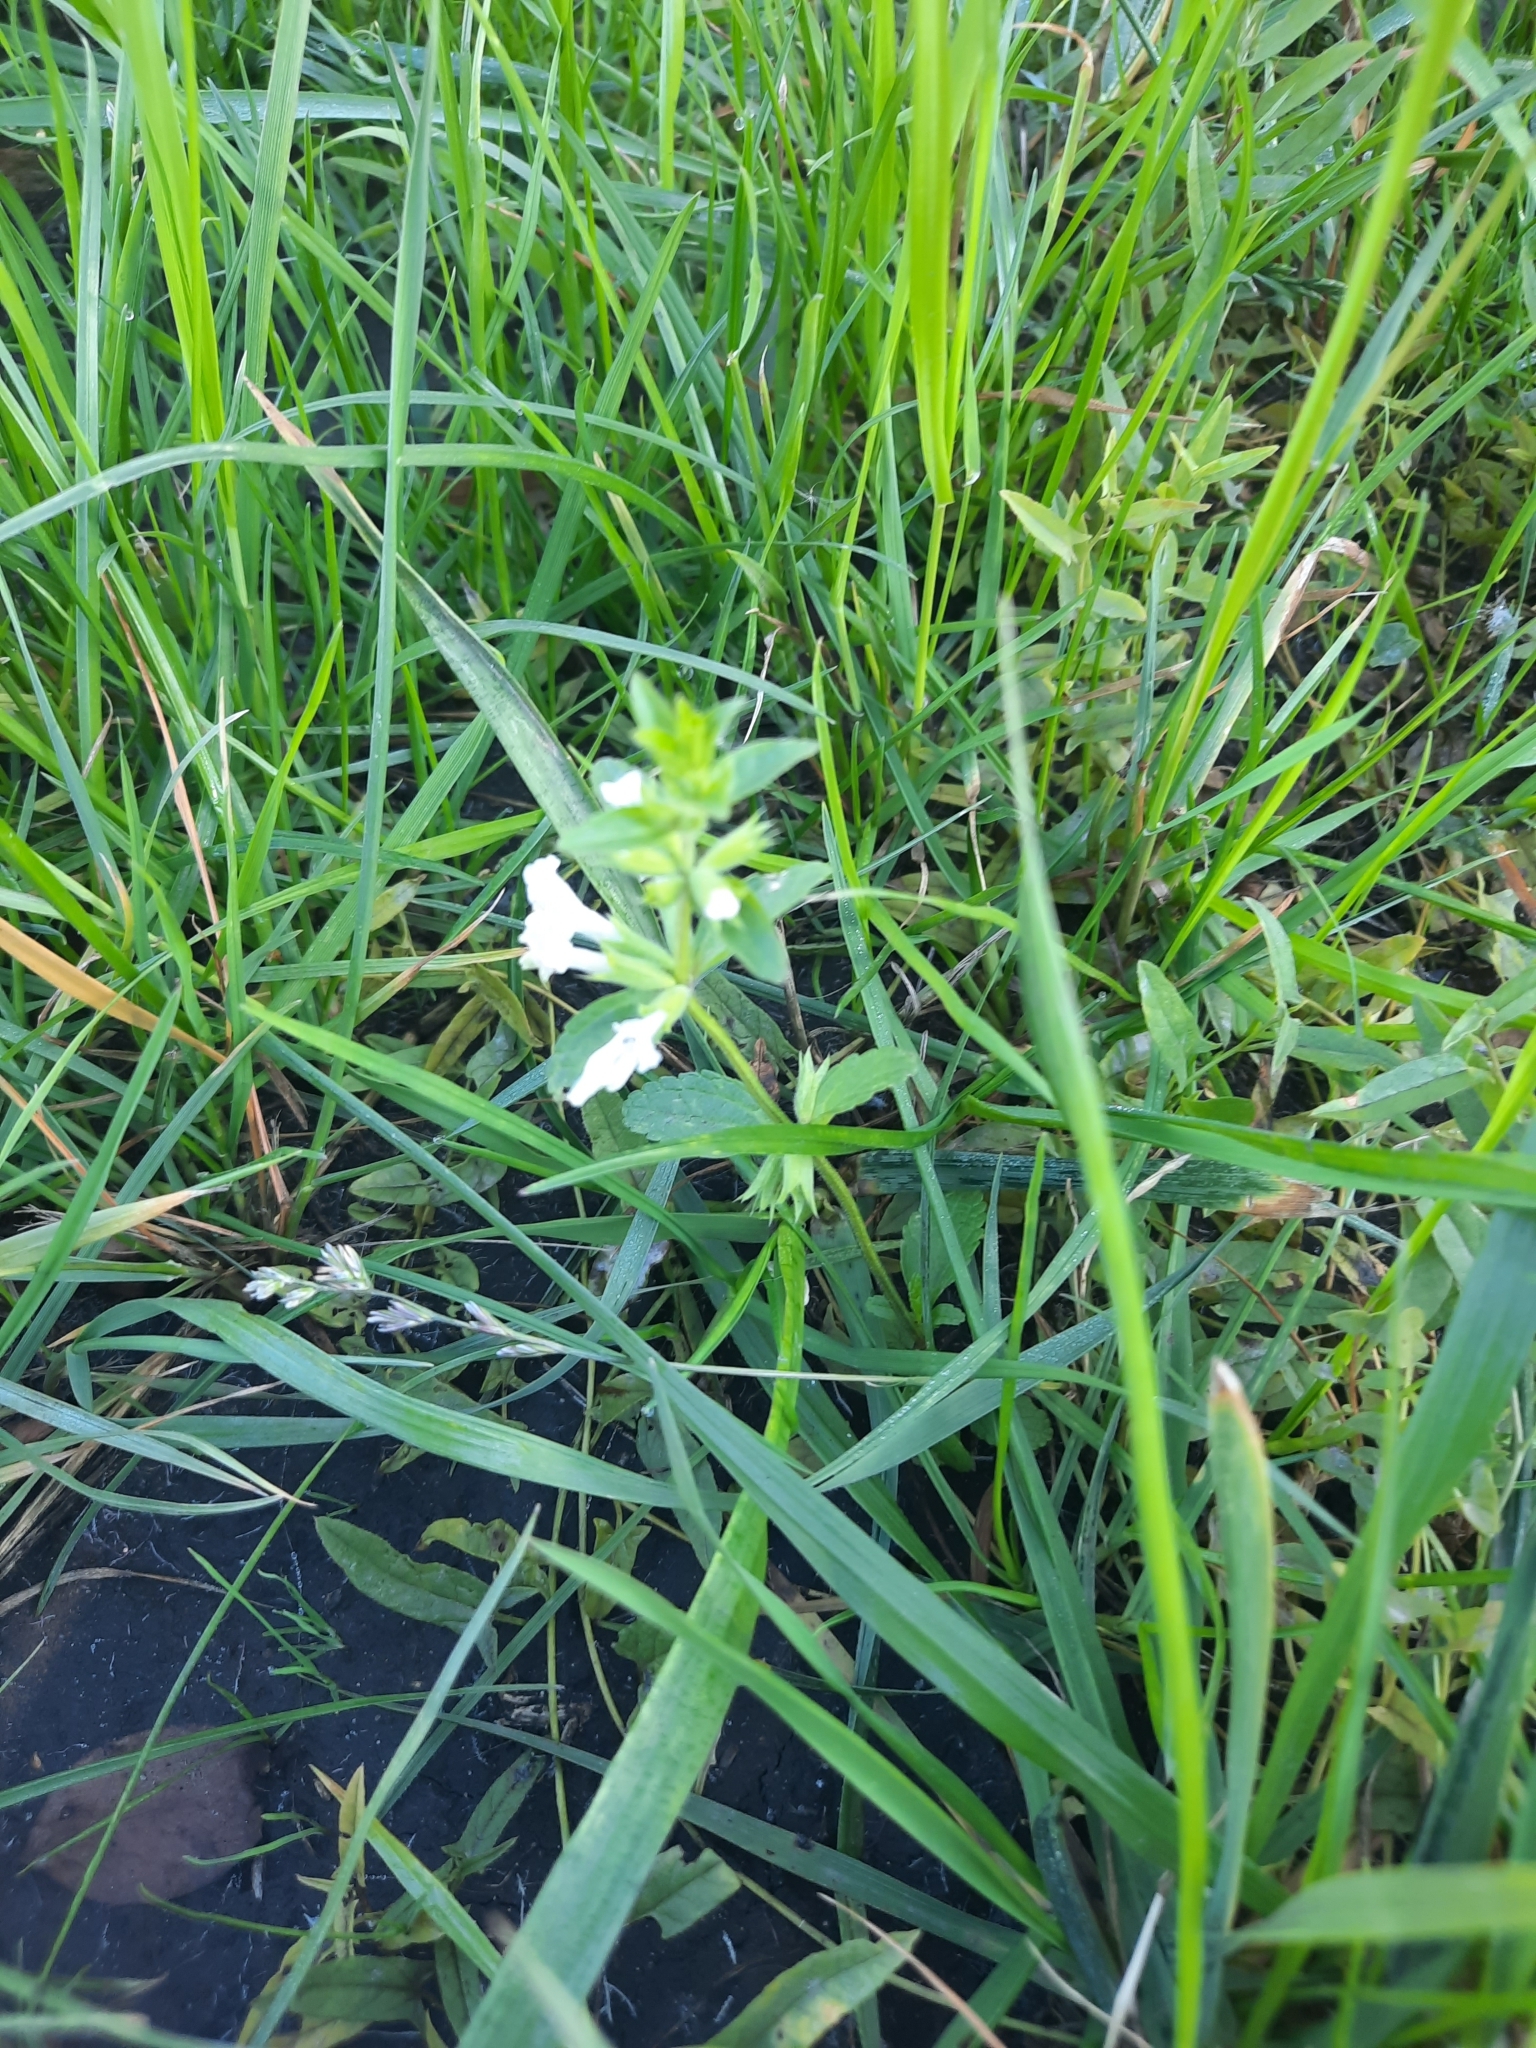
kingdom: Plantae
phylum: Tracheophyta
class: Magnoliopsida
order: Lamiales
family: Lamiaceae
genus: Stachys
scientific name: Stachys annua
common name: Annual yellow-woundwort
